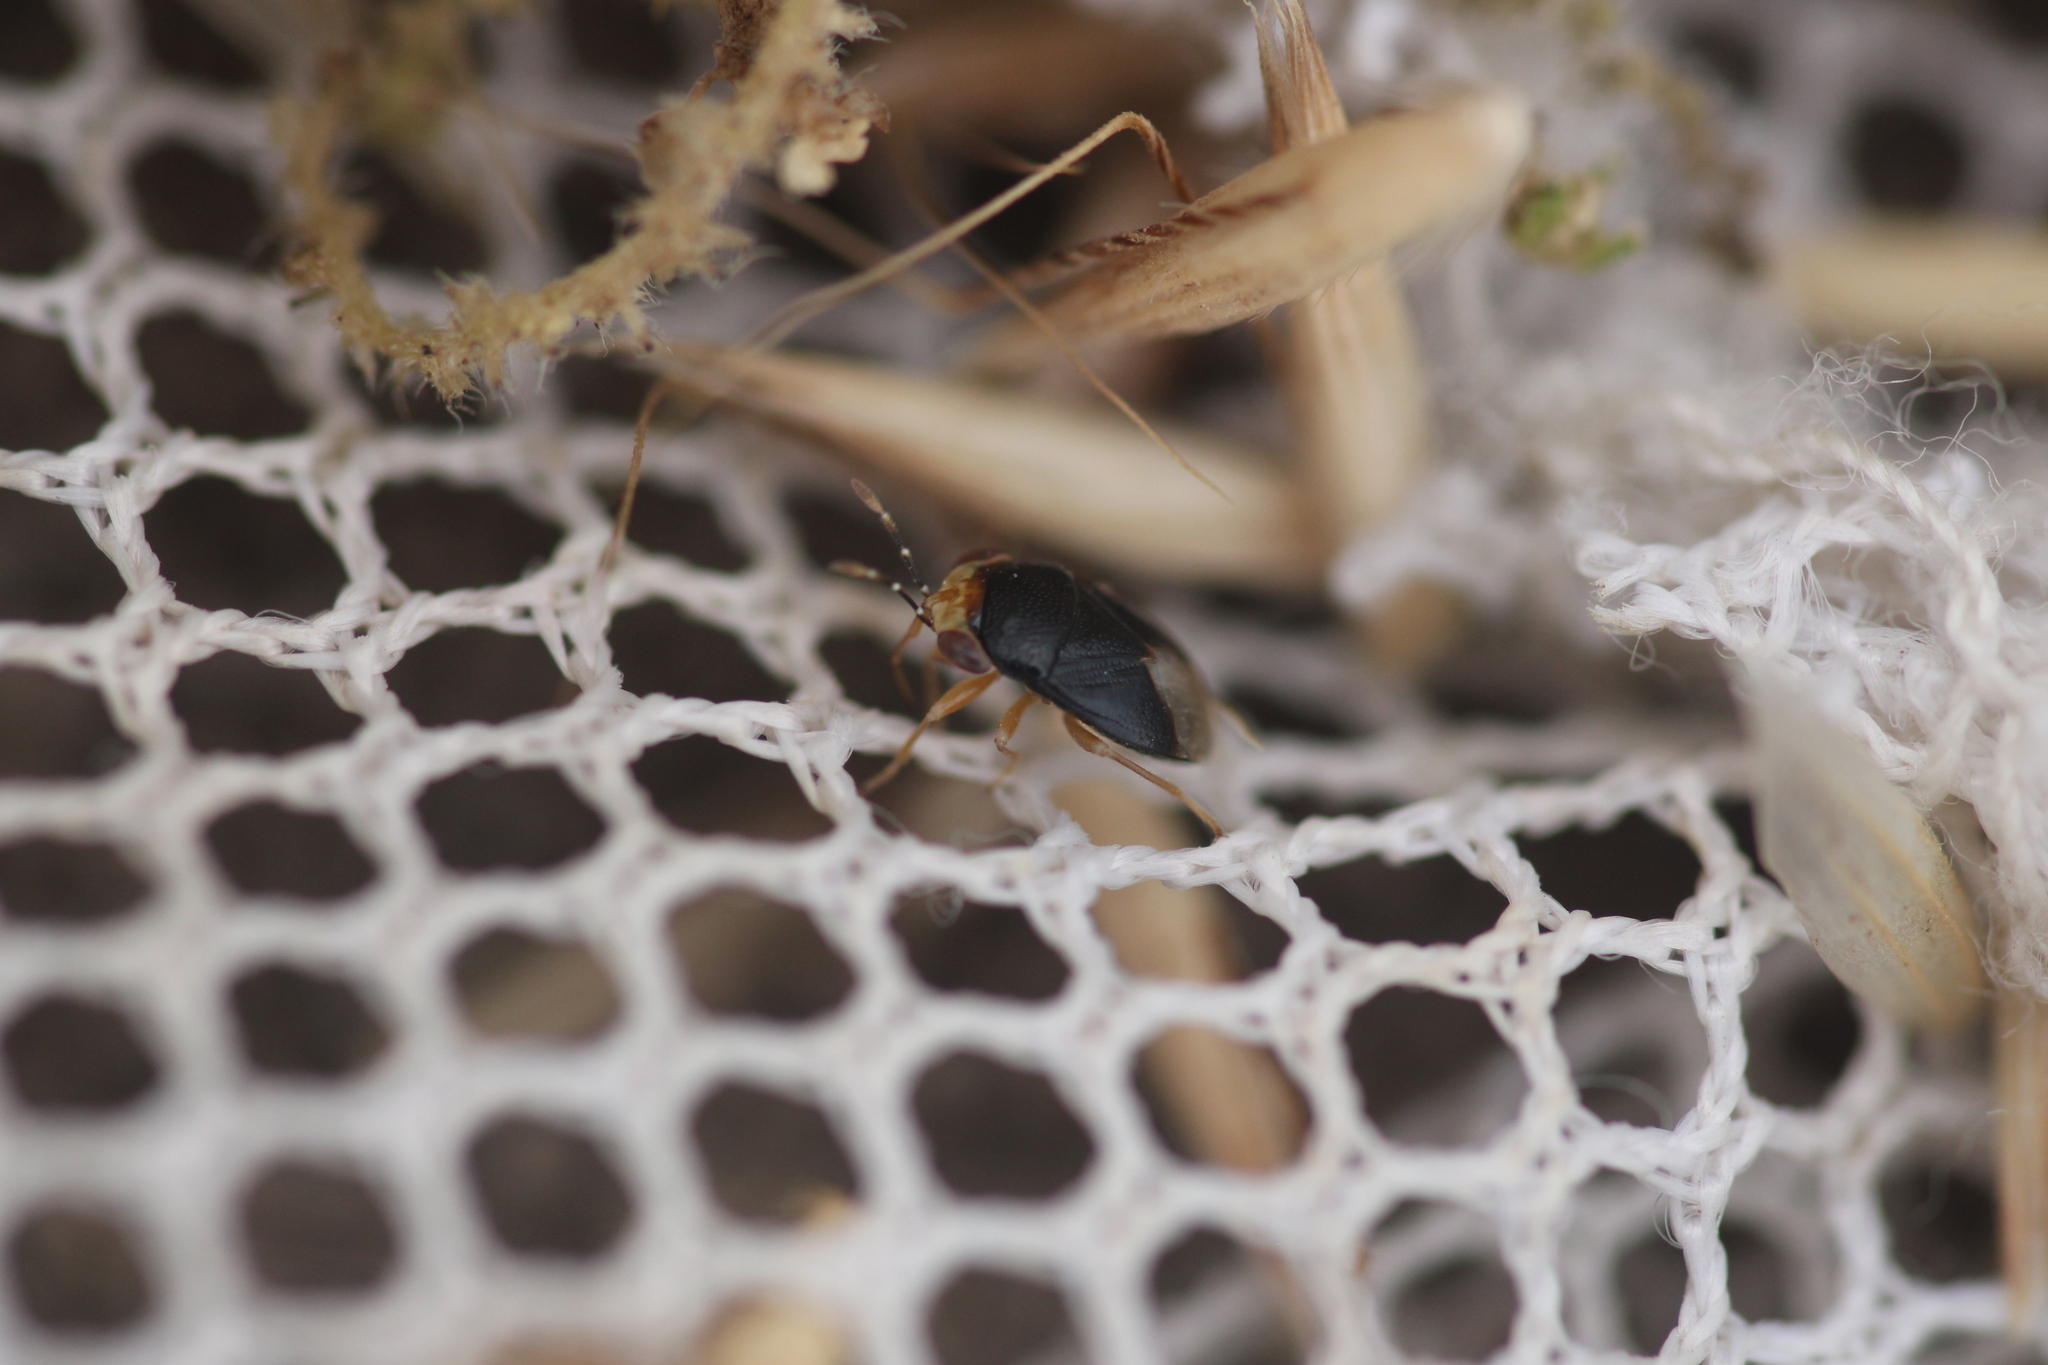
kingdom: Animalia
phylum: Arthropoda
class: Insecta
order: Hemiptera
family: Geocoridae
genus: Geocoris
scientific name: Geocoris erythrocephala
